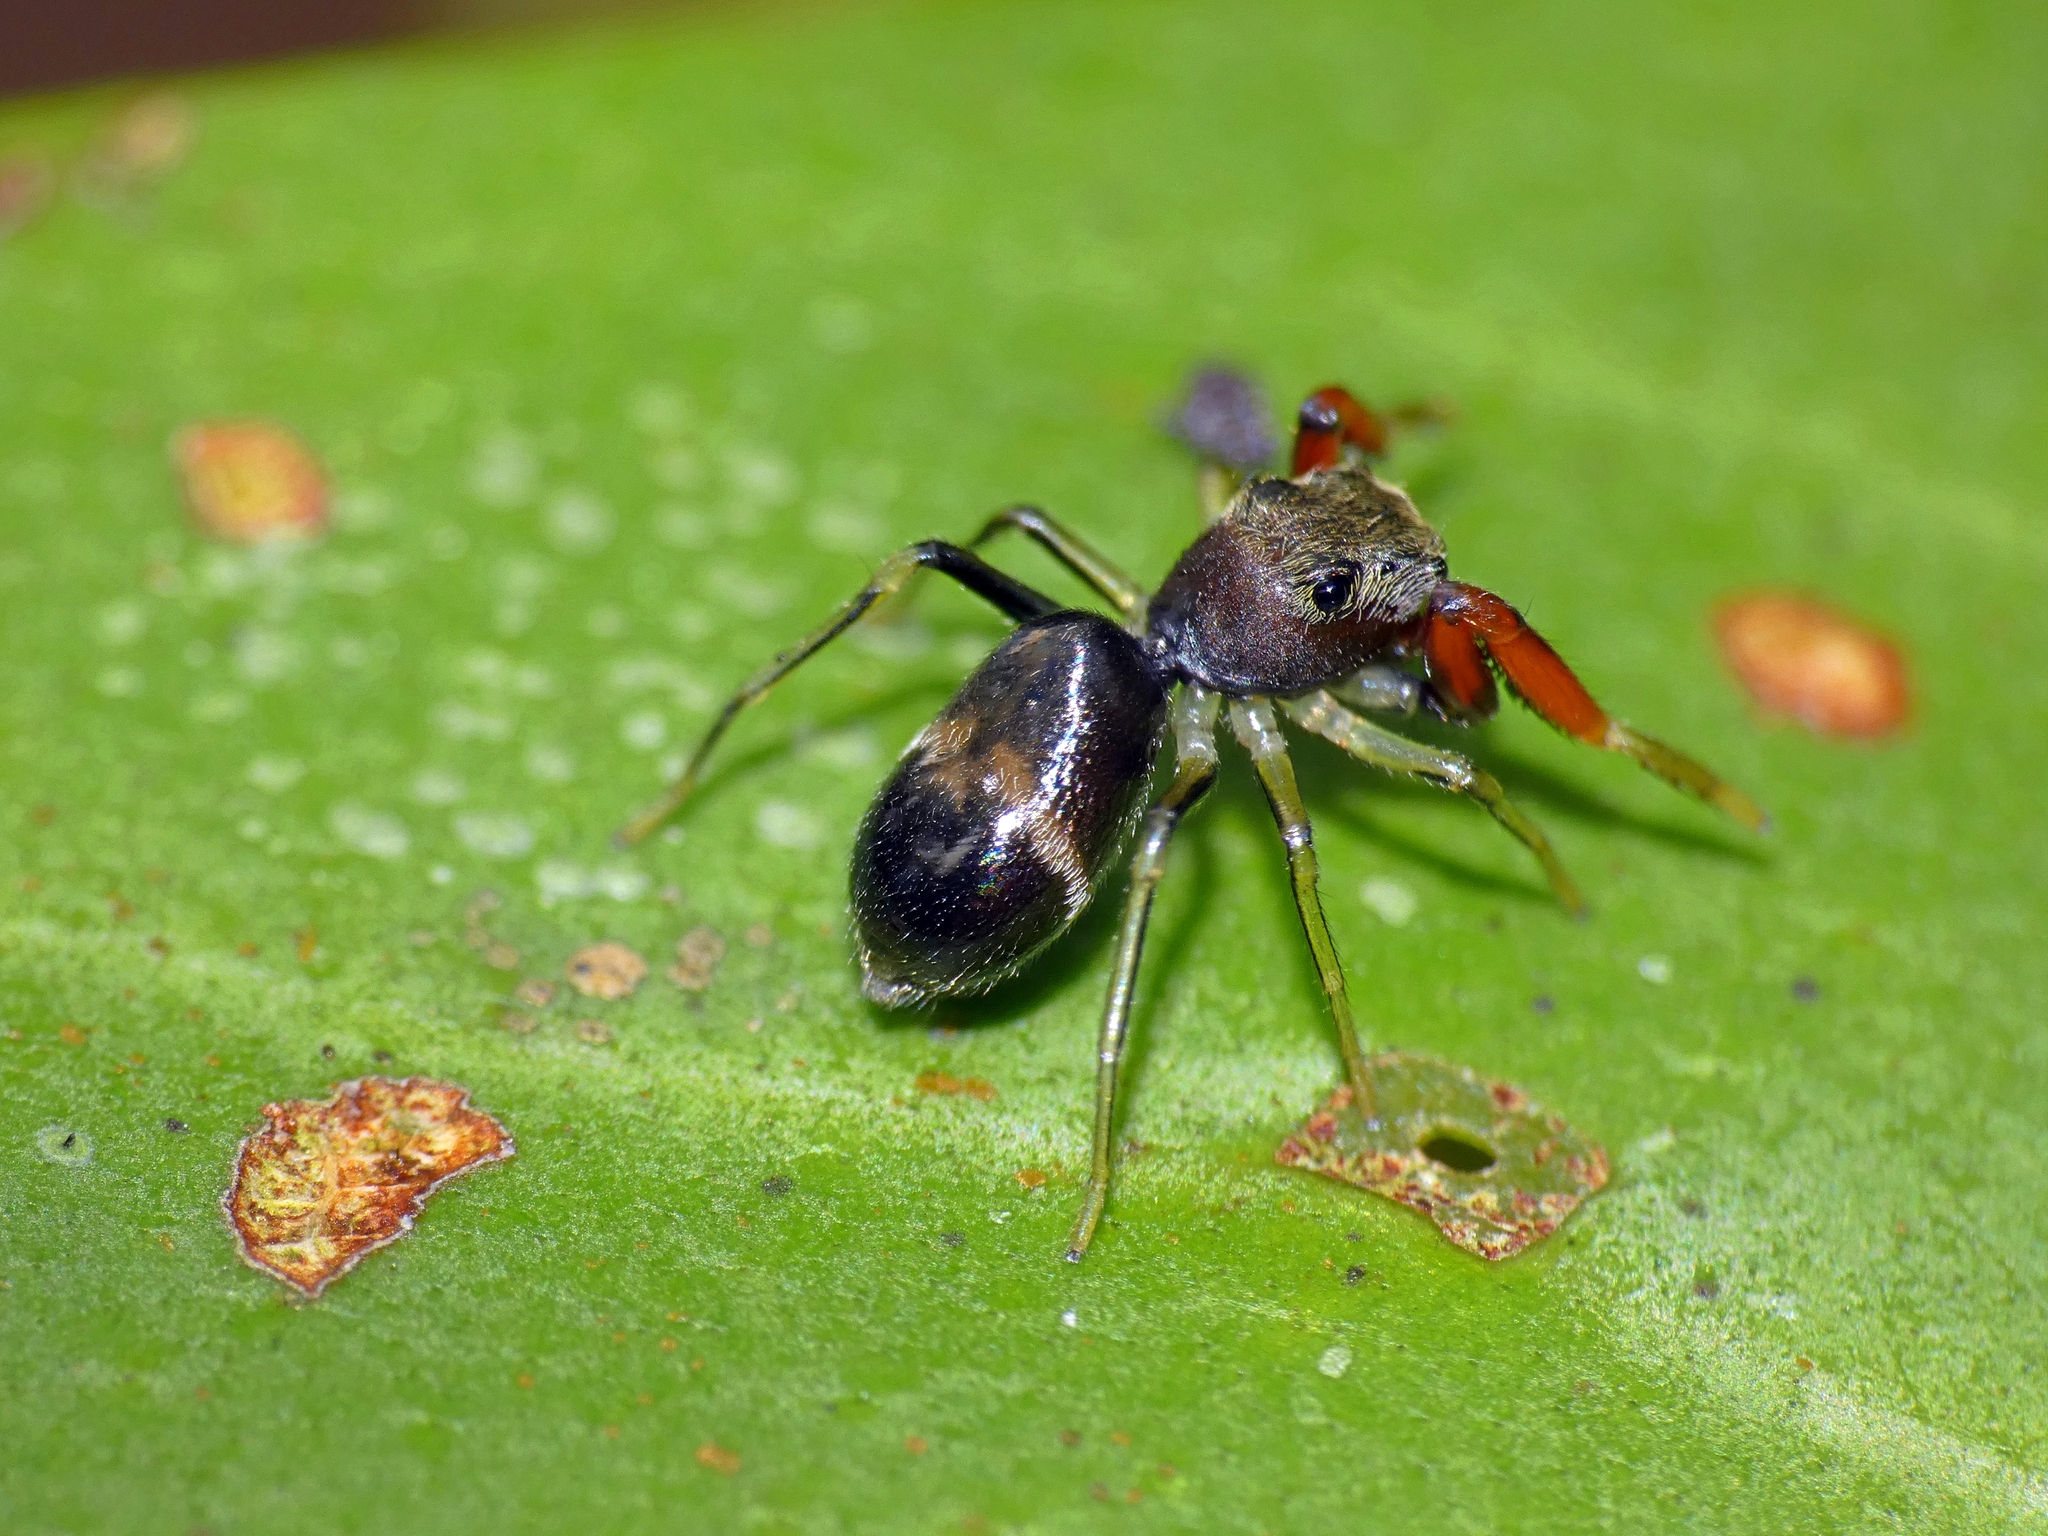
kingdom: Animalia
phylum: Arthropoda
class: Arachnida
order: Araneae
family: Salticidae
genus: Ohilimia
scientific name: Ohilimia scutellata
